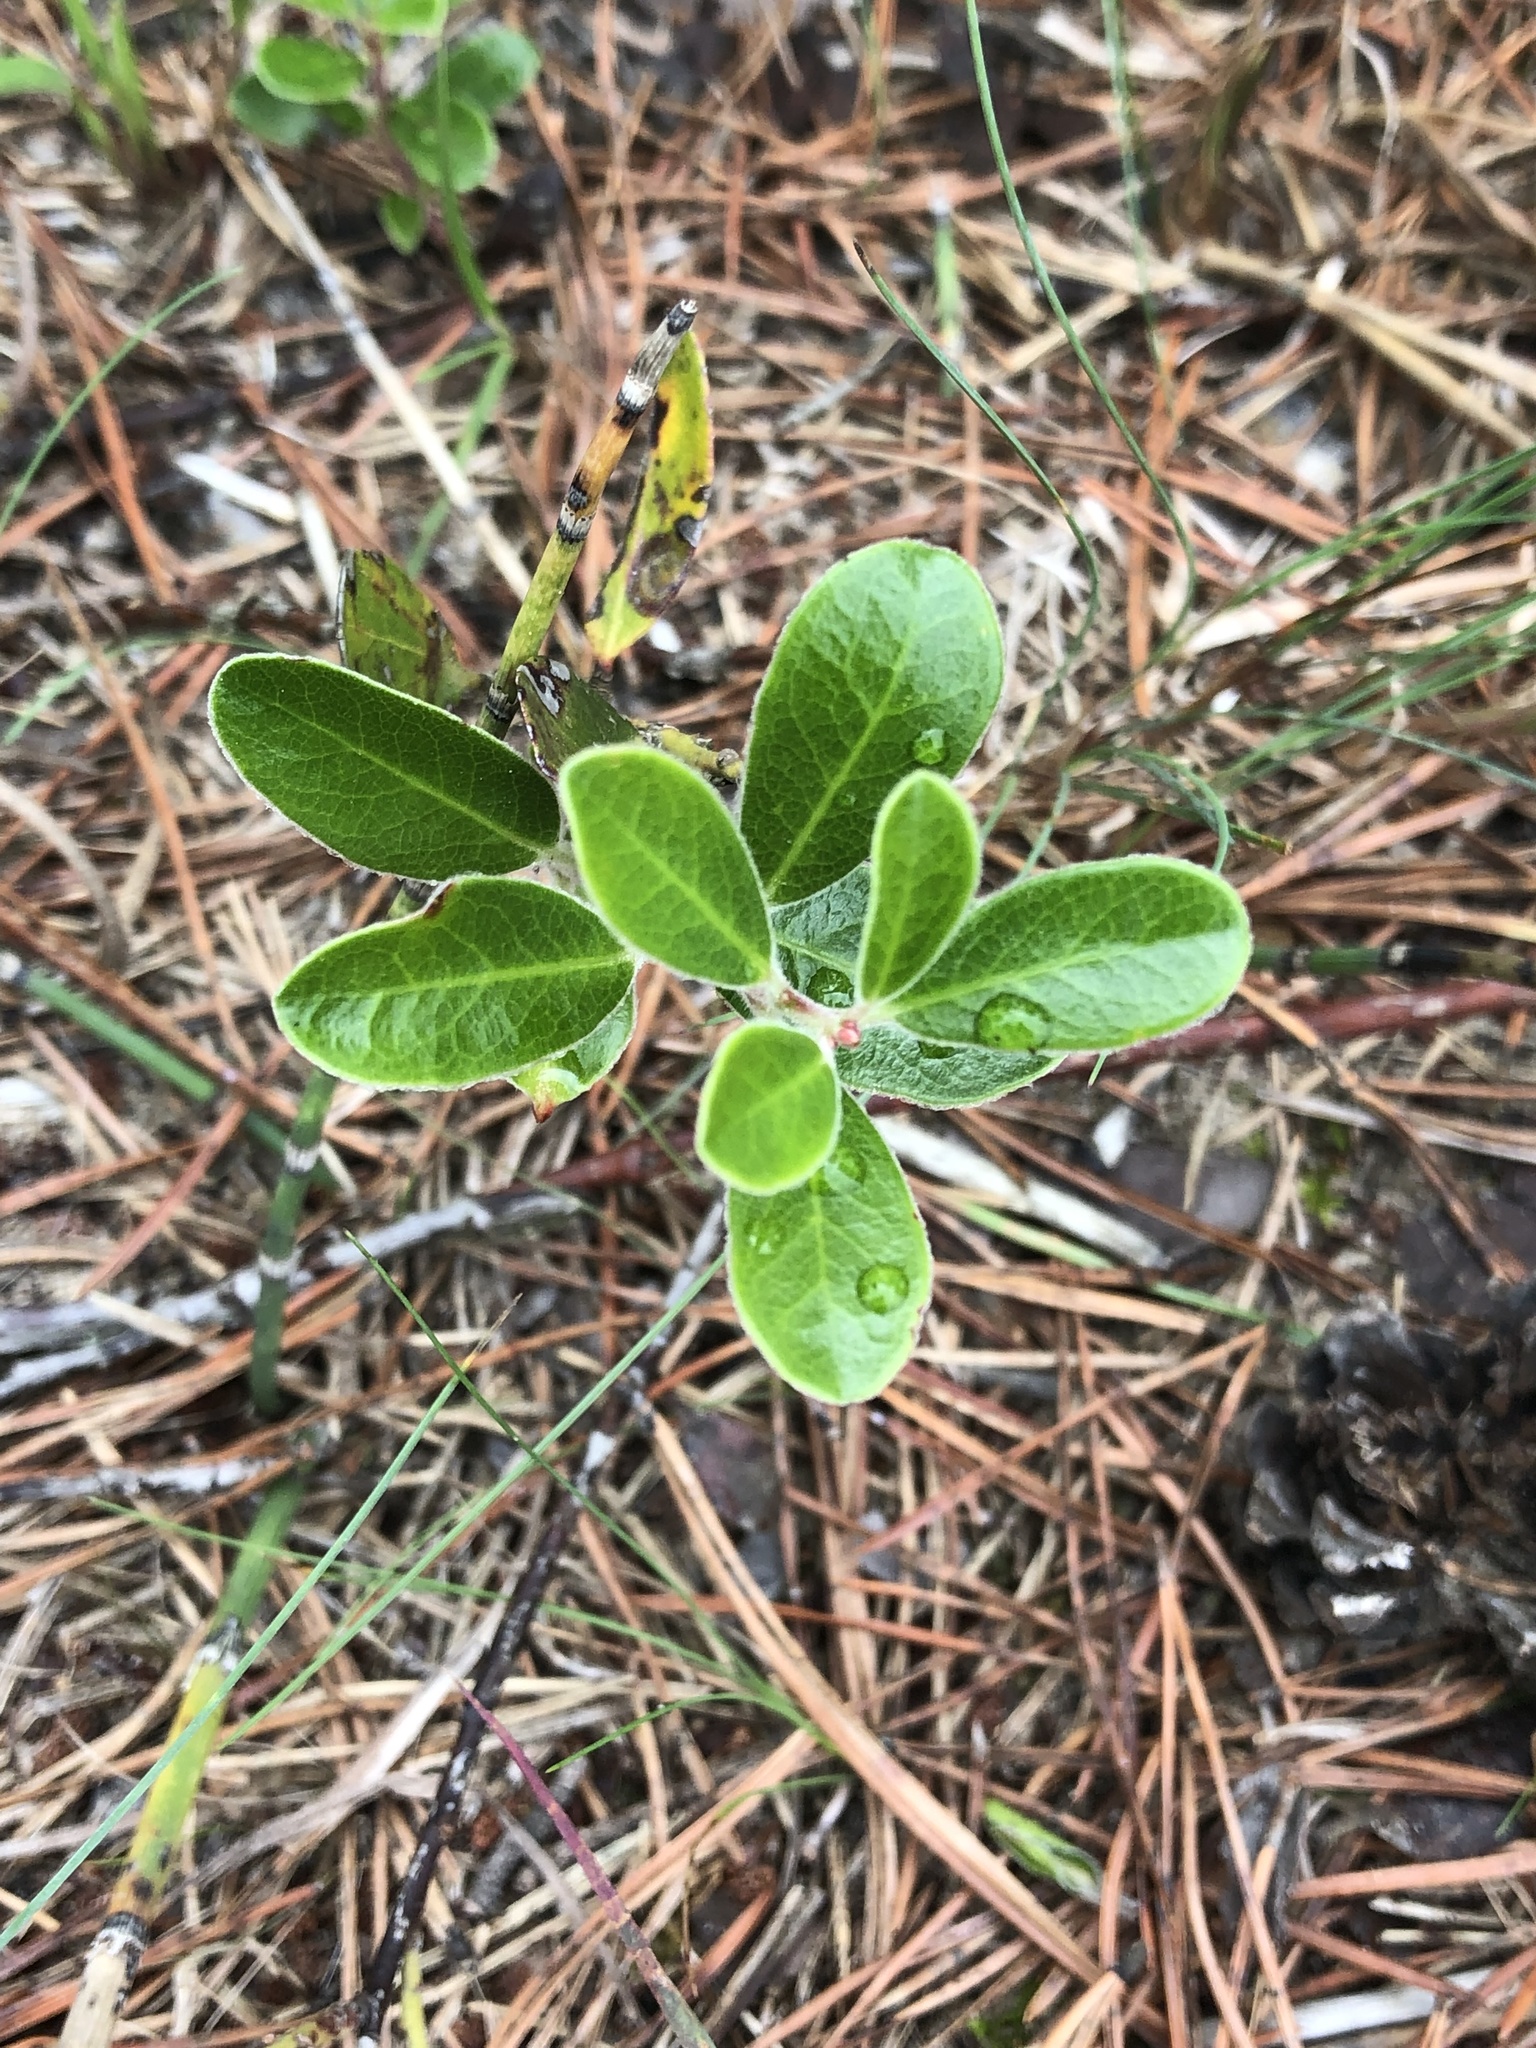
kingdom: Plantae
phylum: Tracheophyta
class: Magnoliopsida
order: Ericales
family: Ericaceae
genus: Arctostaphylos
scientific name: Arctostaphylos uva-ursi
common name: Bearberry
